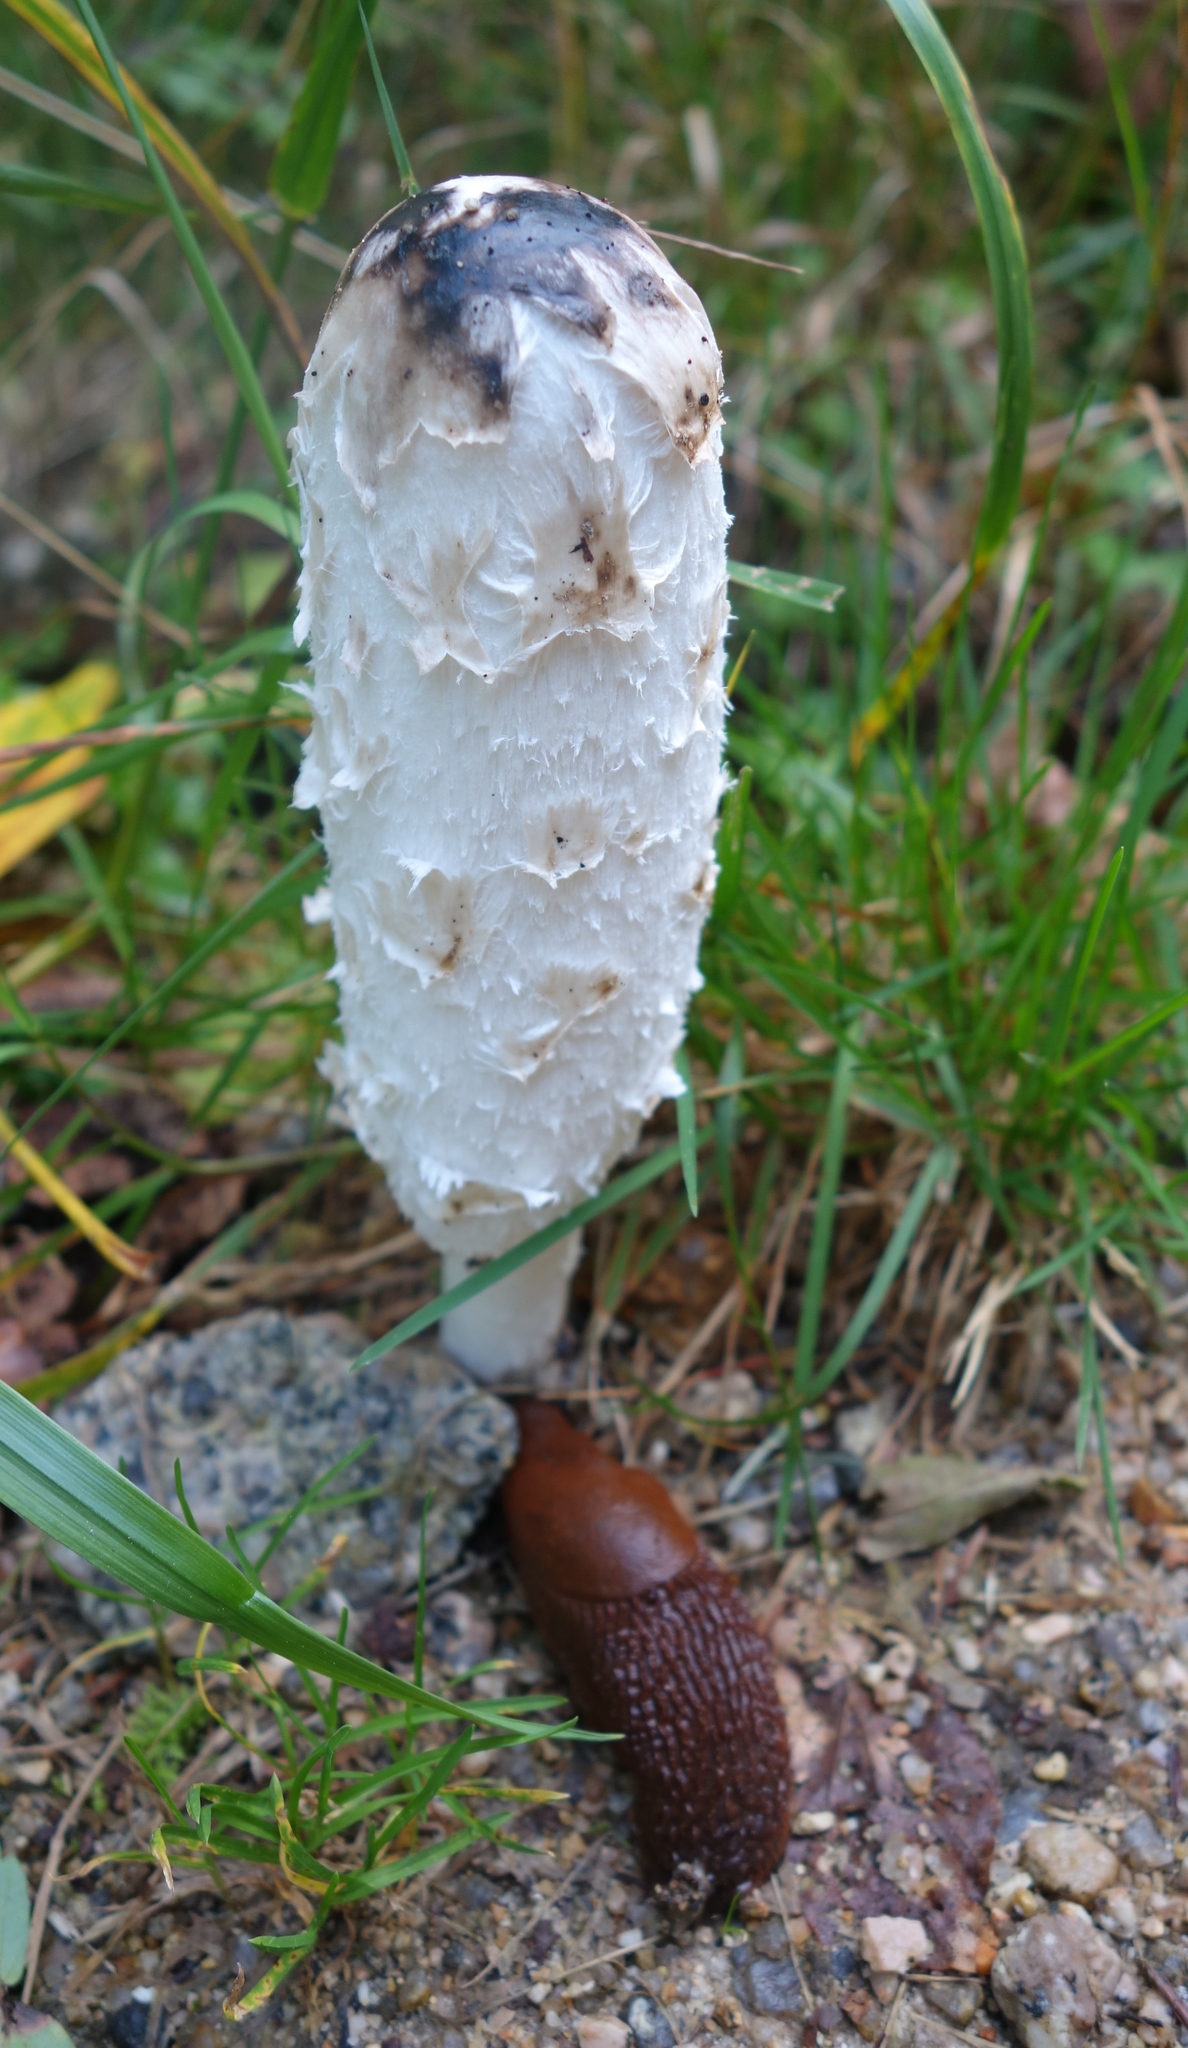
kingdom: Fungi
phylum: Basidiomycota
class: Agaricomycetes
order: Agaricales
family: Agaricaceae
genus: Coprinus
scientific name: Coprinus comatus
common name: Lawyer's wig
